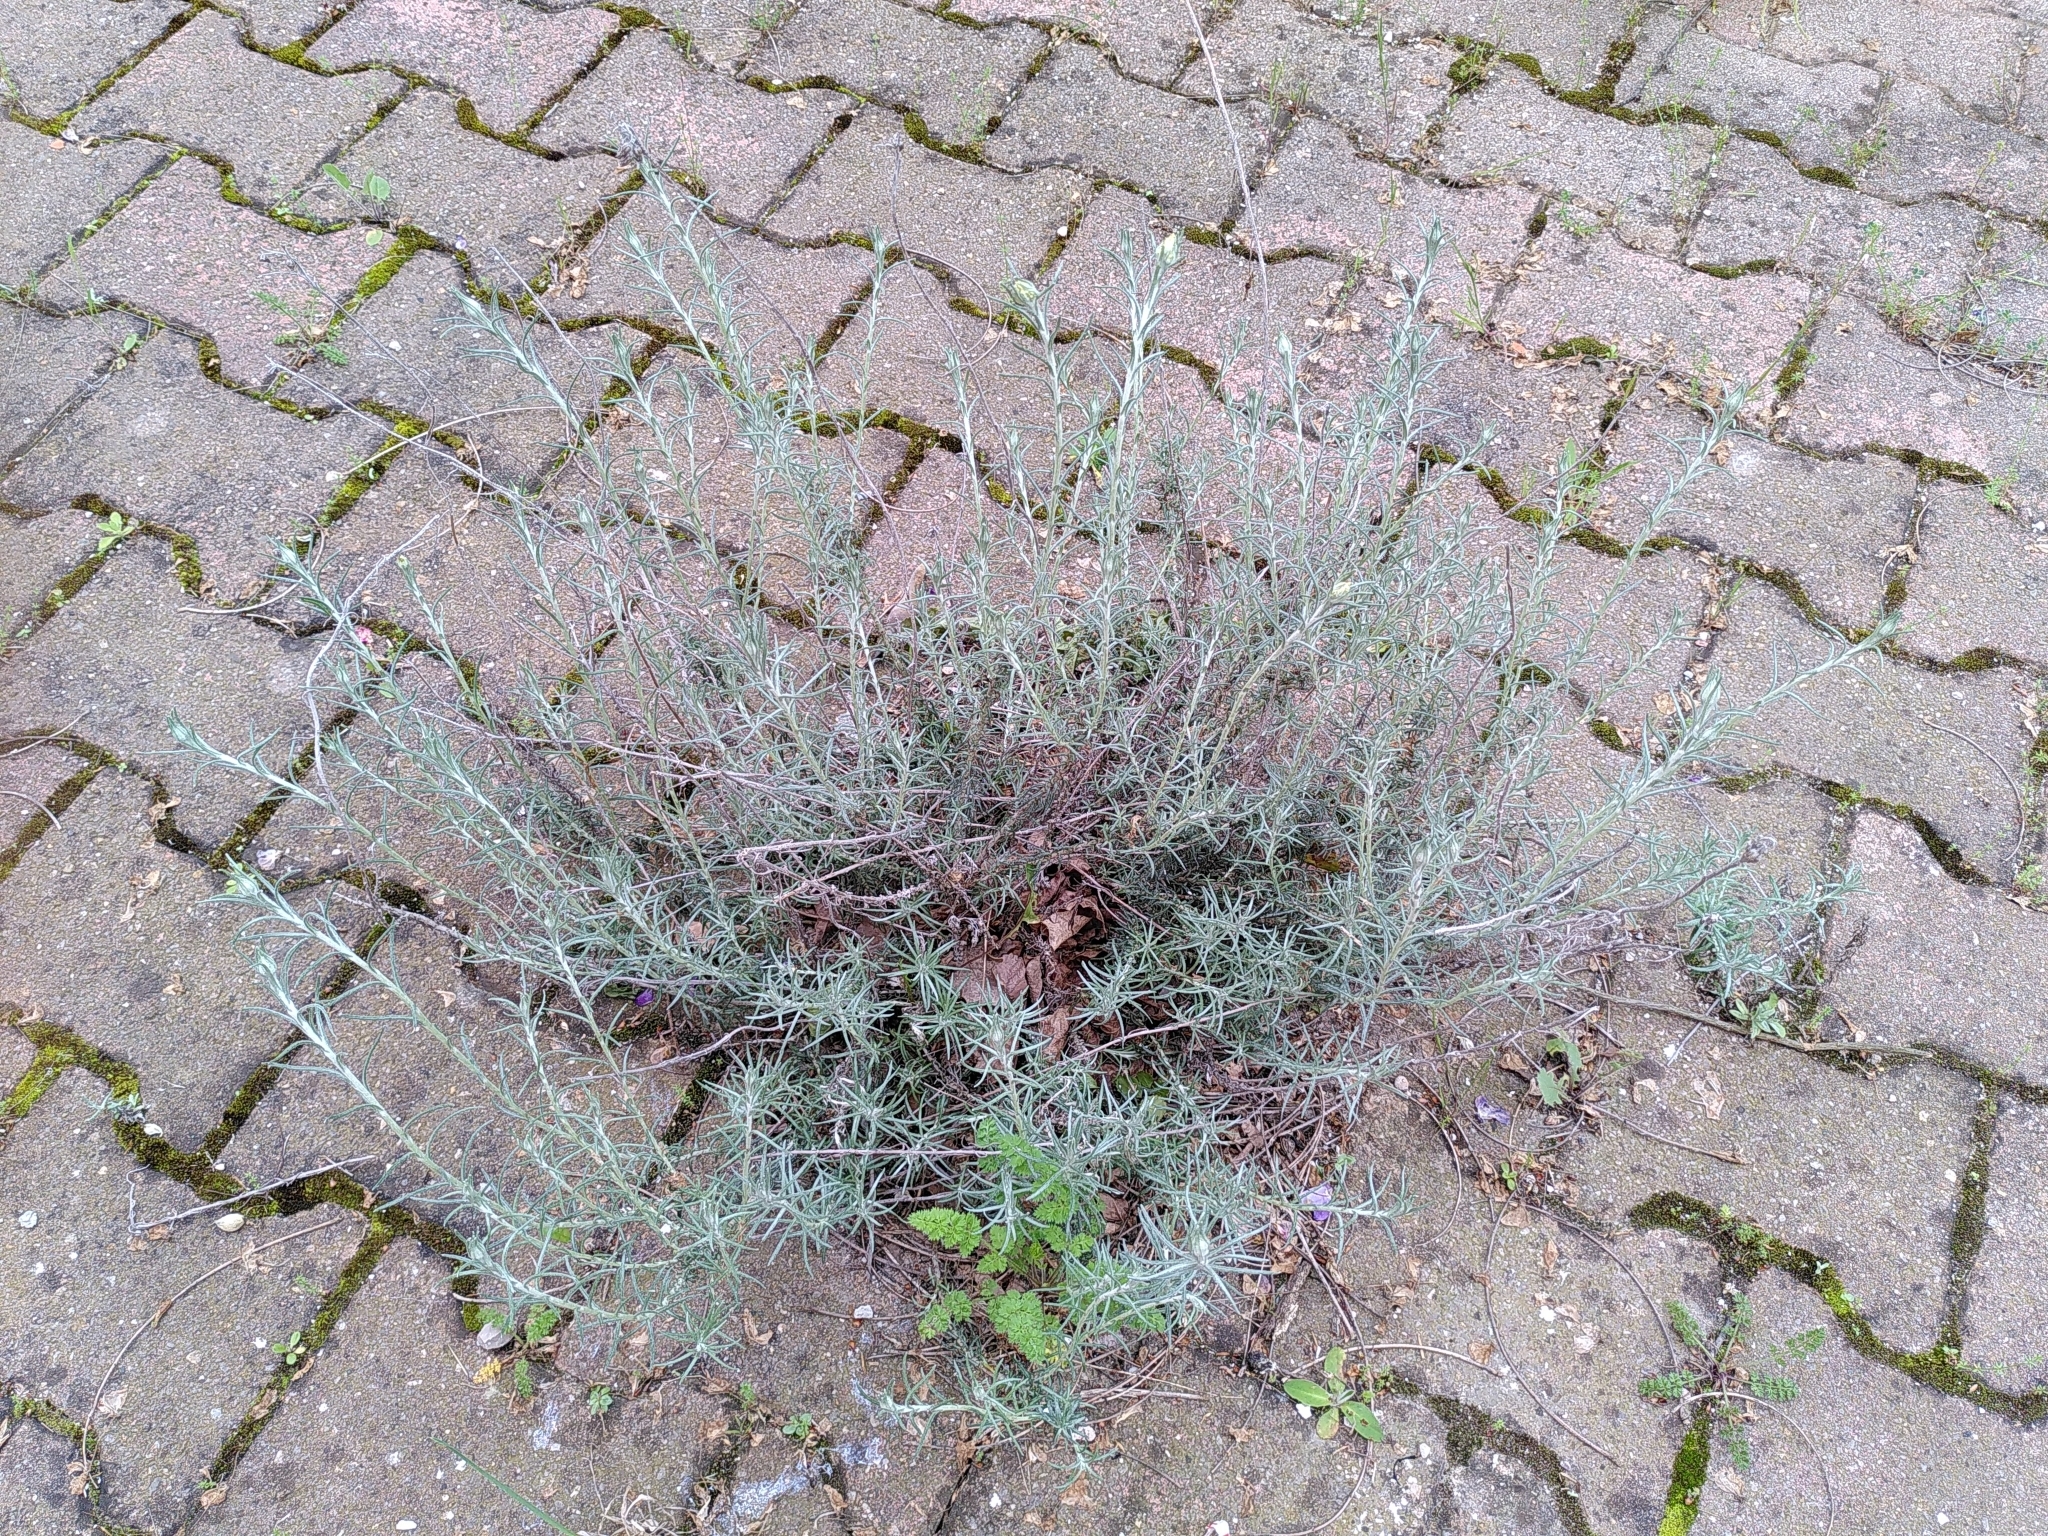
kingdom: Plantae
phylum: Tracheophyta
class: Magnoliopsida
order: Asterales
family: Asteraceae
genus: Helichrysum
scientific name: Helichrysum stoechas
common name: Goldilocks
